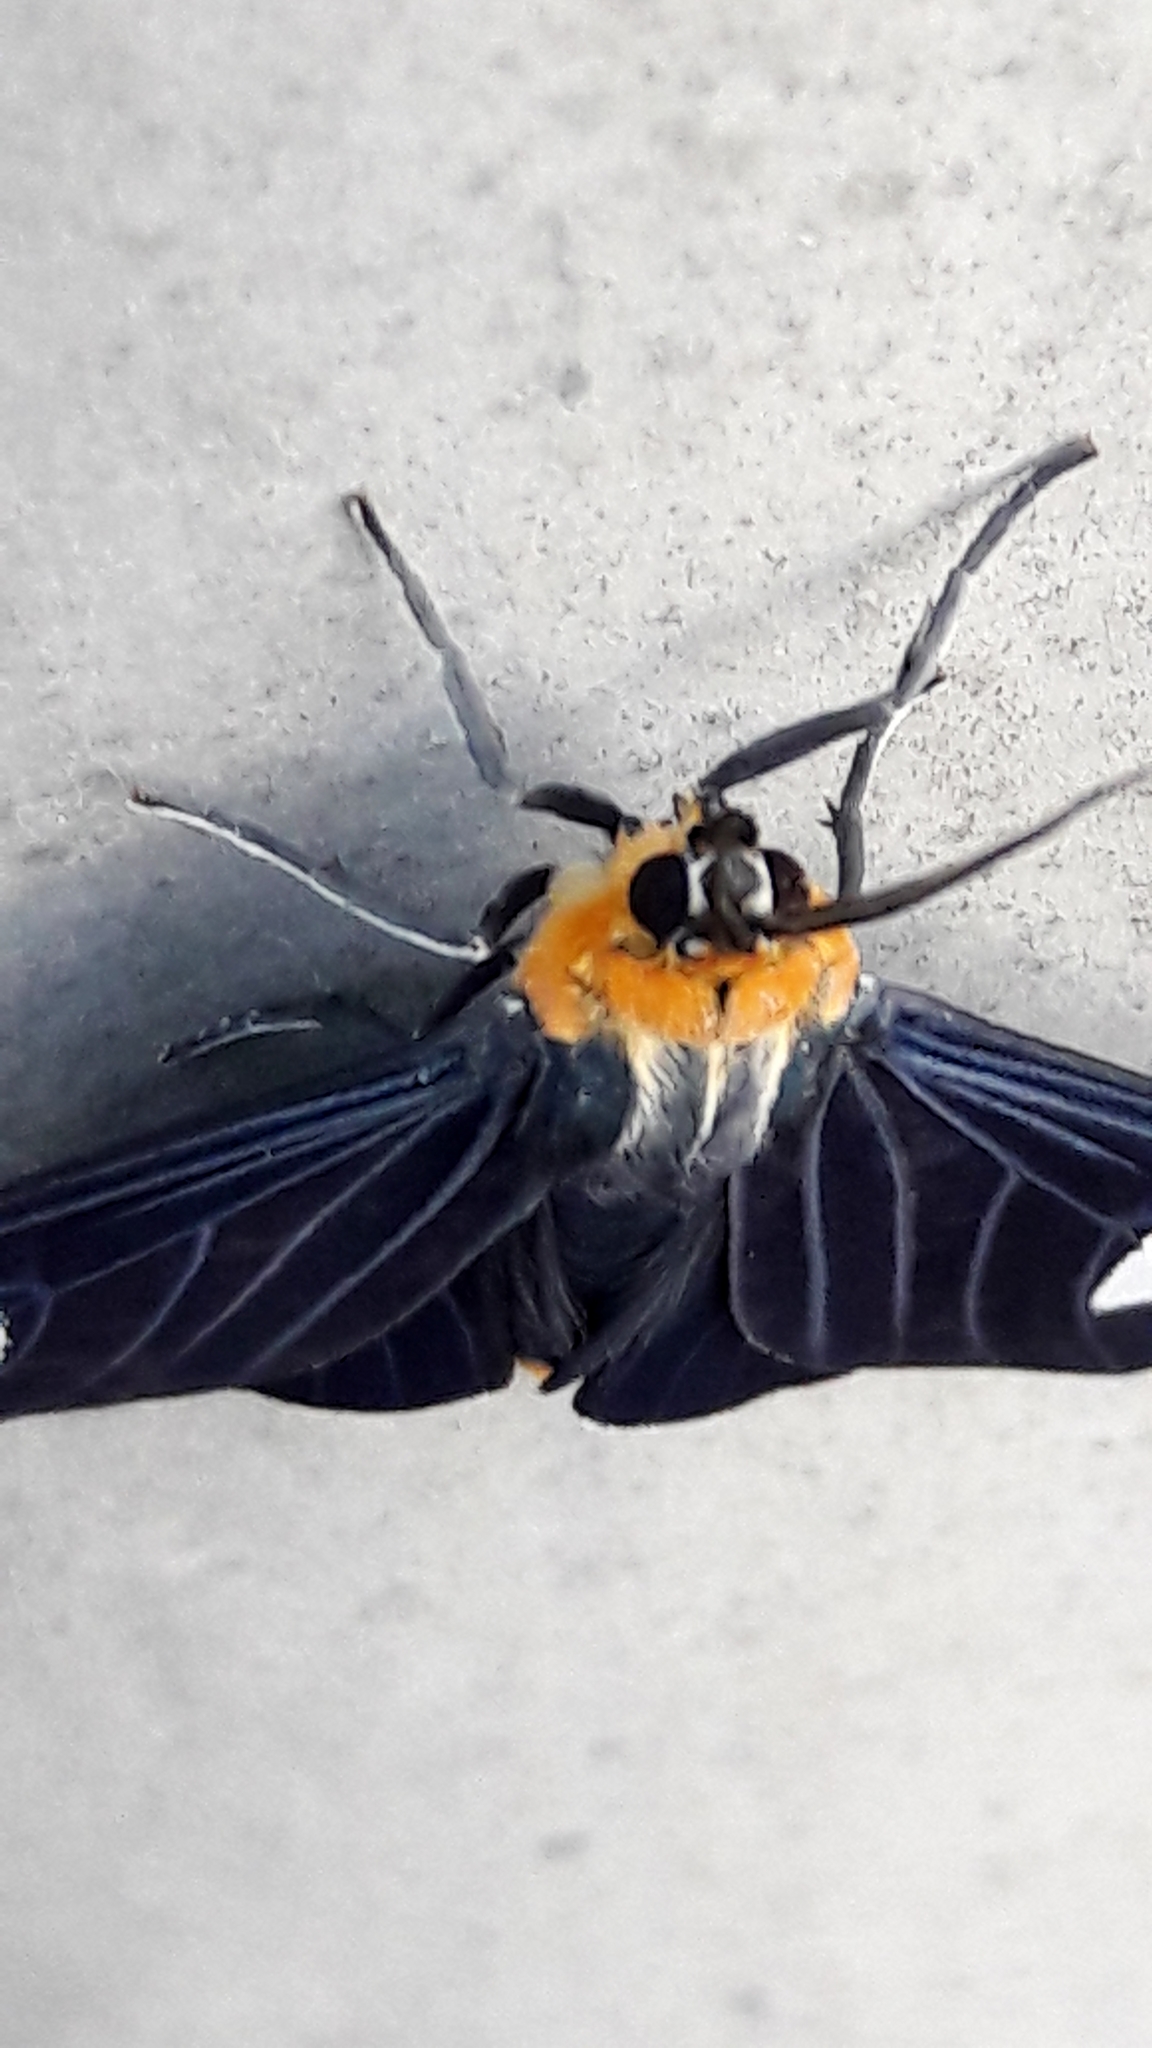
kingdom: Animalia
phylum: Arthropoda
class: Insecta
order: Lepidoptera
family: Erebidae
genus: Calodesma
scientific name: Calodesma collaris
